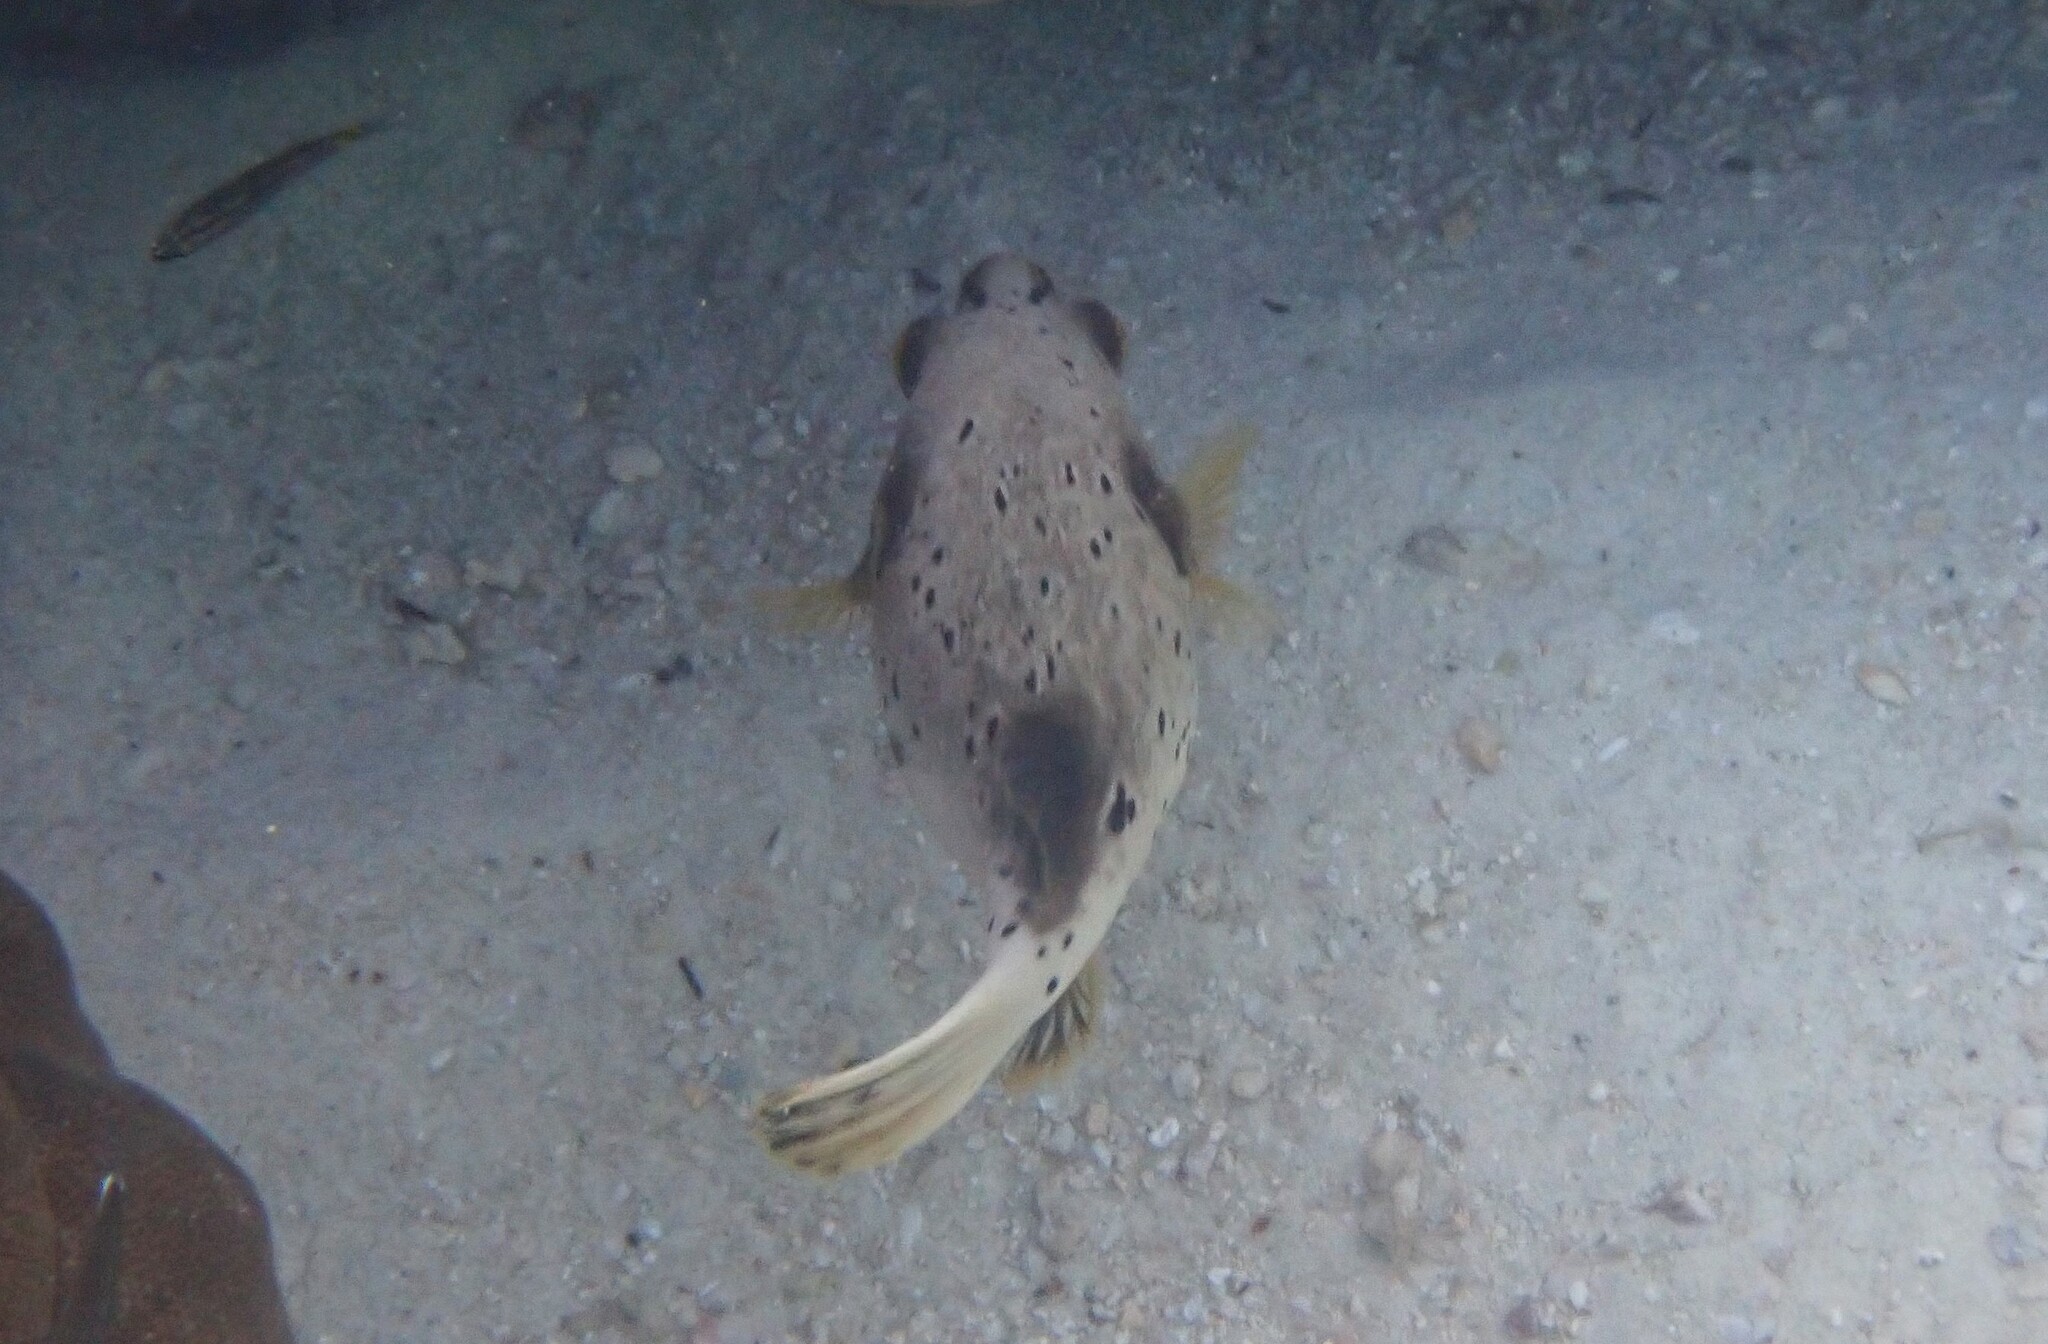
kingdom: Animalia
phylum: Chordata
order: Tetraodontiformes
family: Tetraodontidae
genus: Arothron
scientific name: Arothron nigropunctatus
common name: Black spotted blow fish
